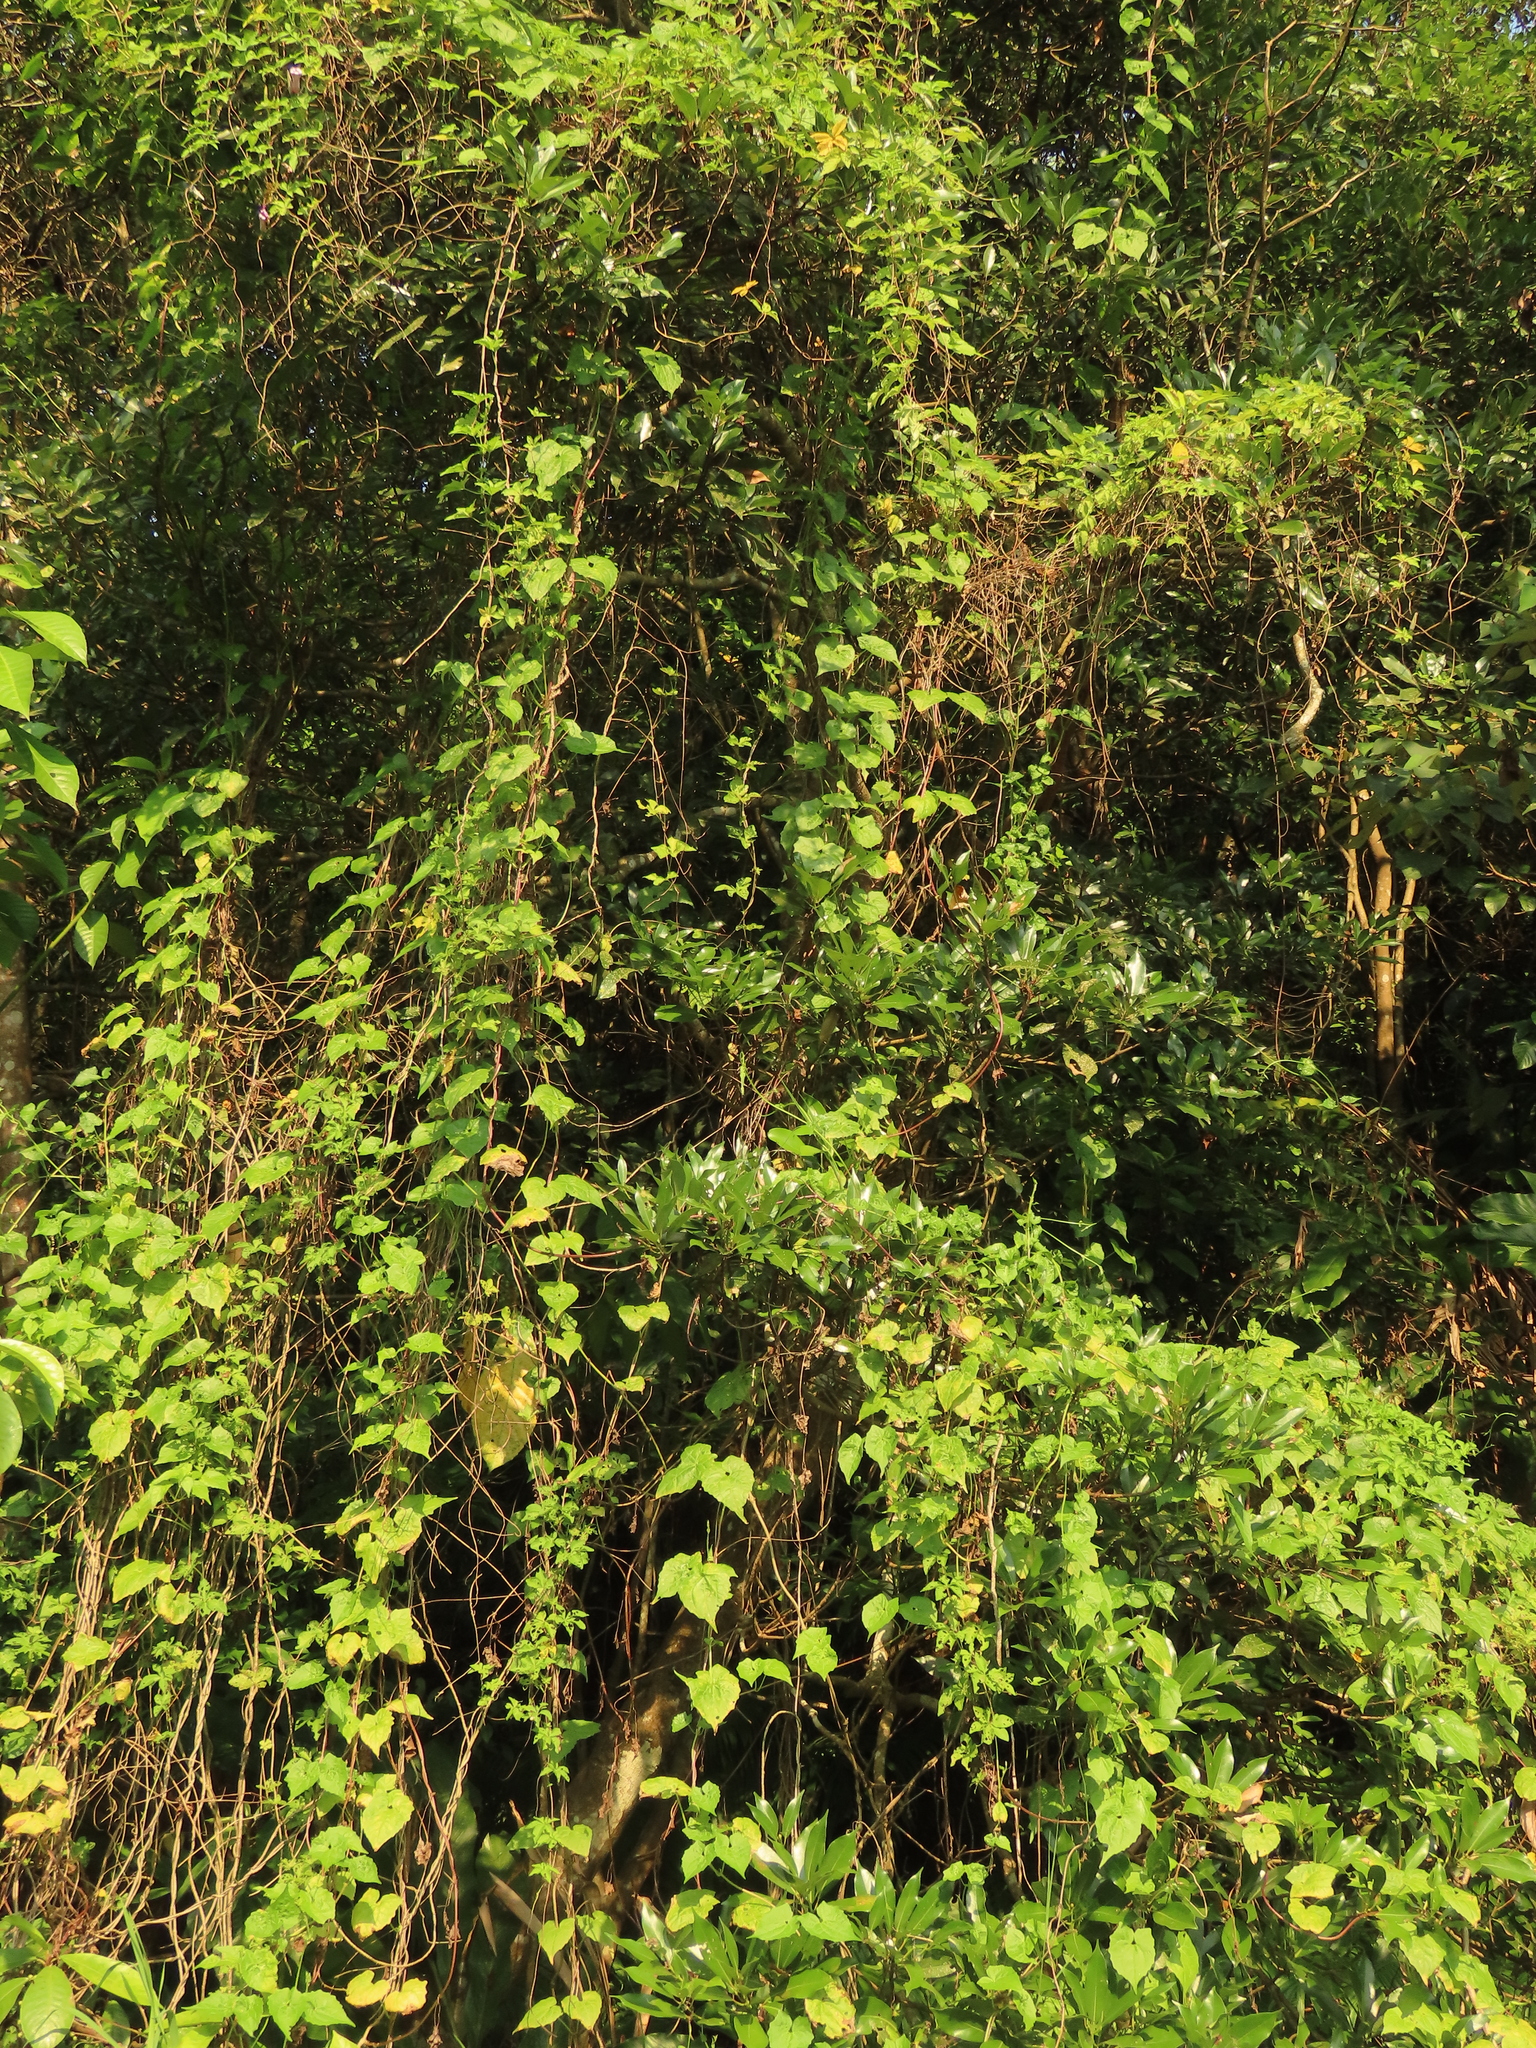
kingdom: Plantae
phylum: Tracheophyta
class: Magnoliopsida
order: Laurales
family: Lauraceae
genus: Machilus
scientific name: Machilus thunbergii
